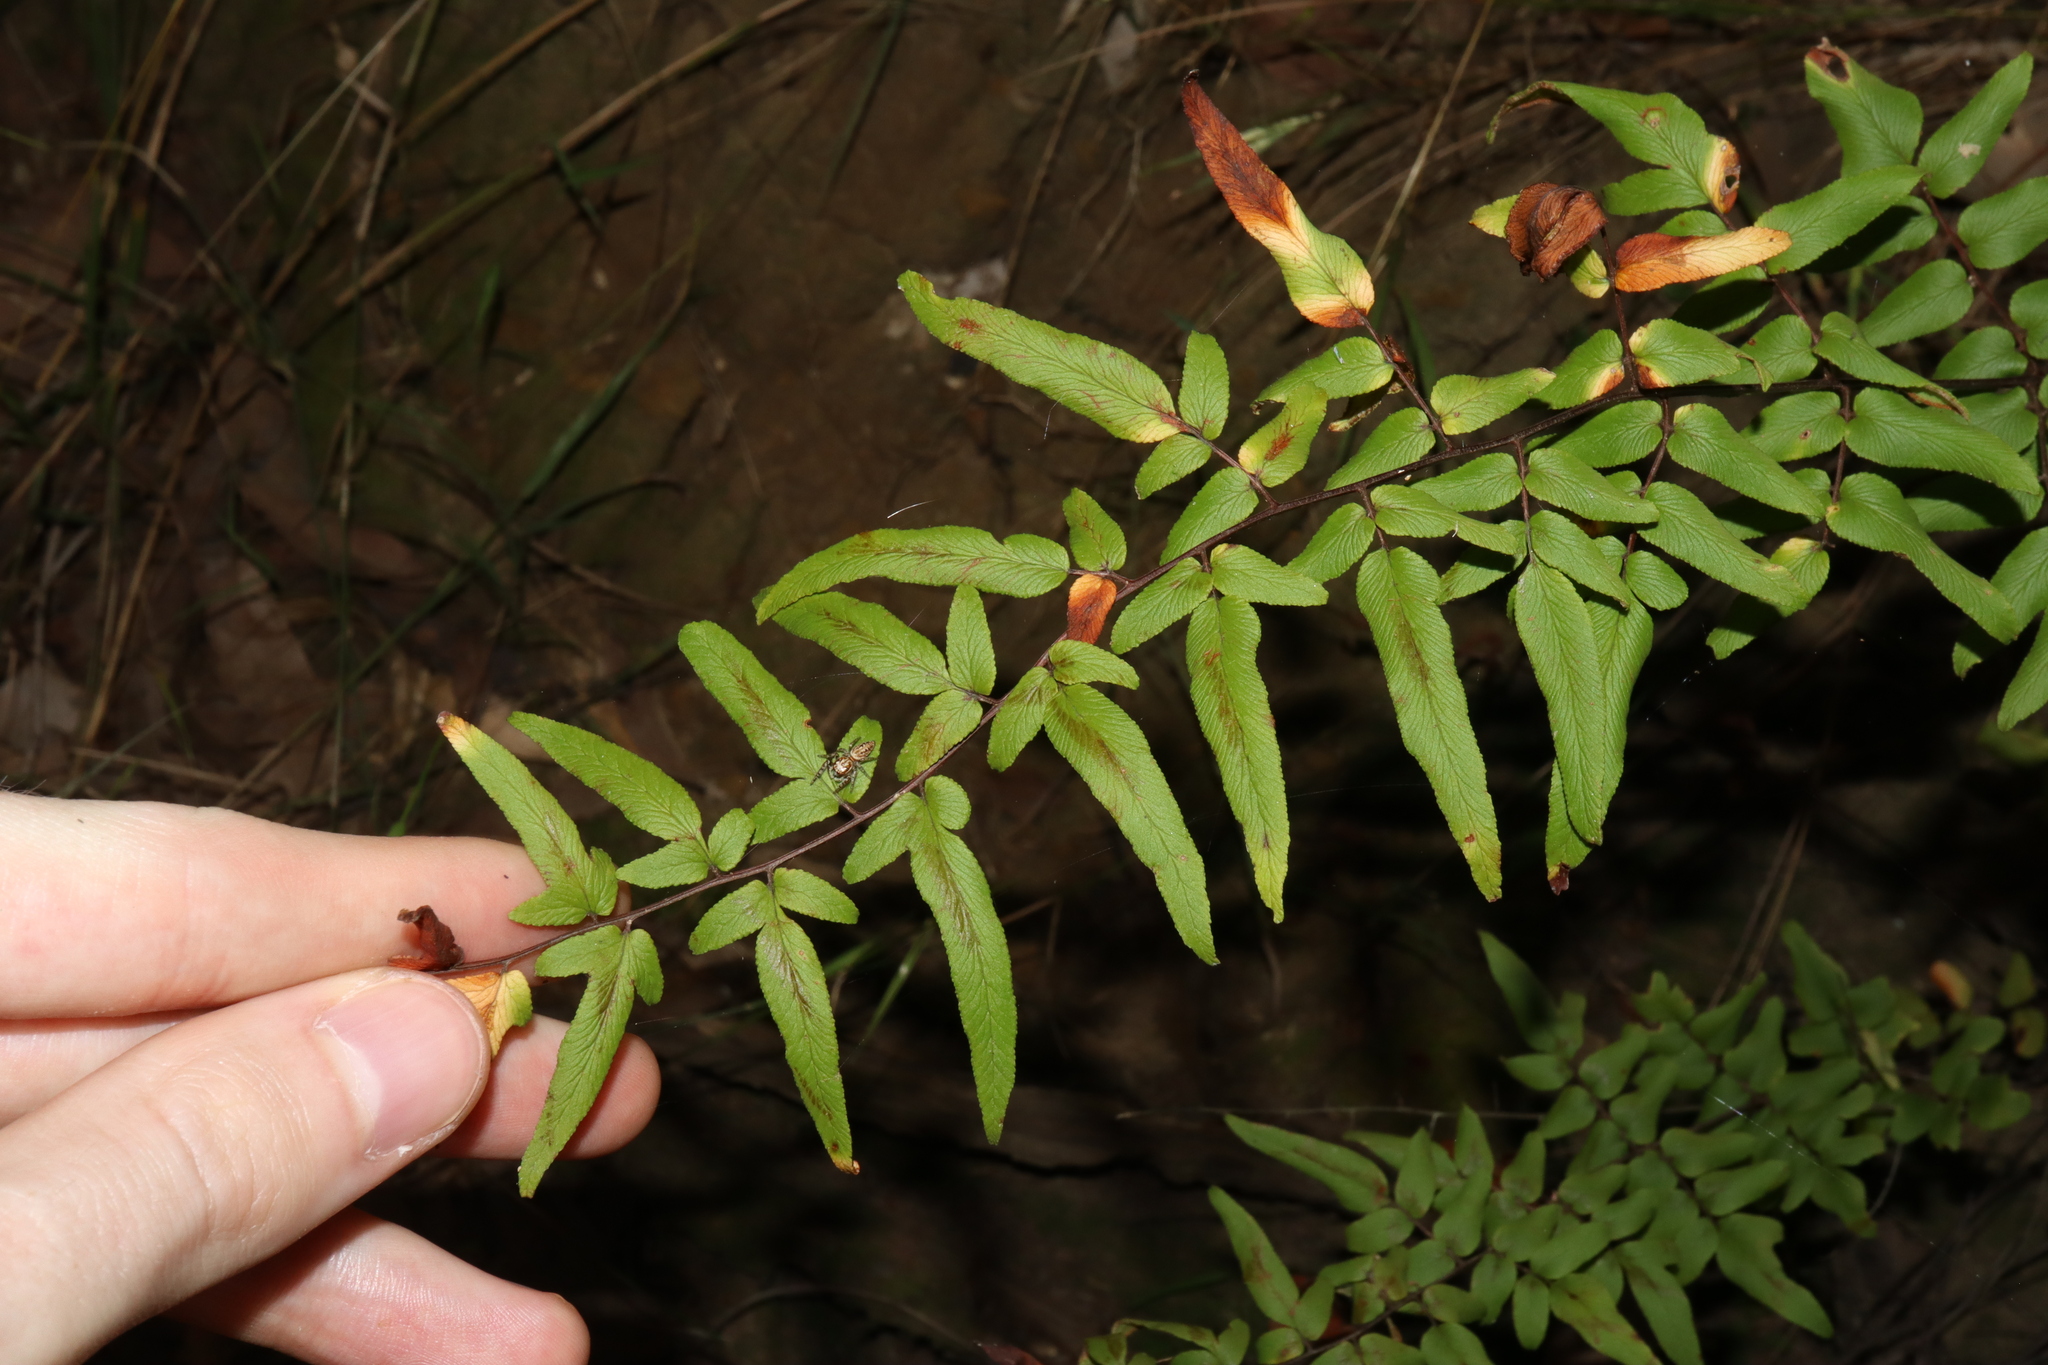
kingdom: Plantae
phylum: Tracheophyta
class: Polypodiopsida
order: Polypodiales
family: Pteridaceae
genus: Cheilanthes
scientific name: Cheilanthes viridis
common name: Green cliffbrake
